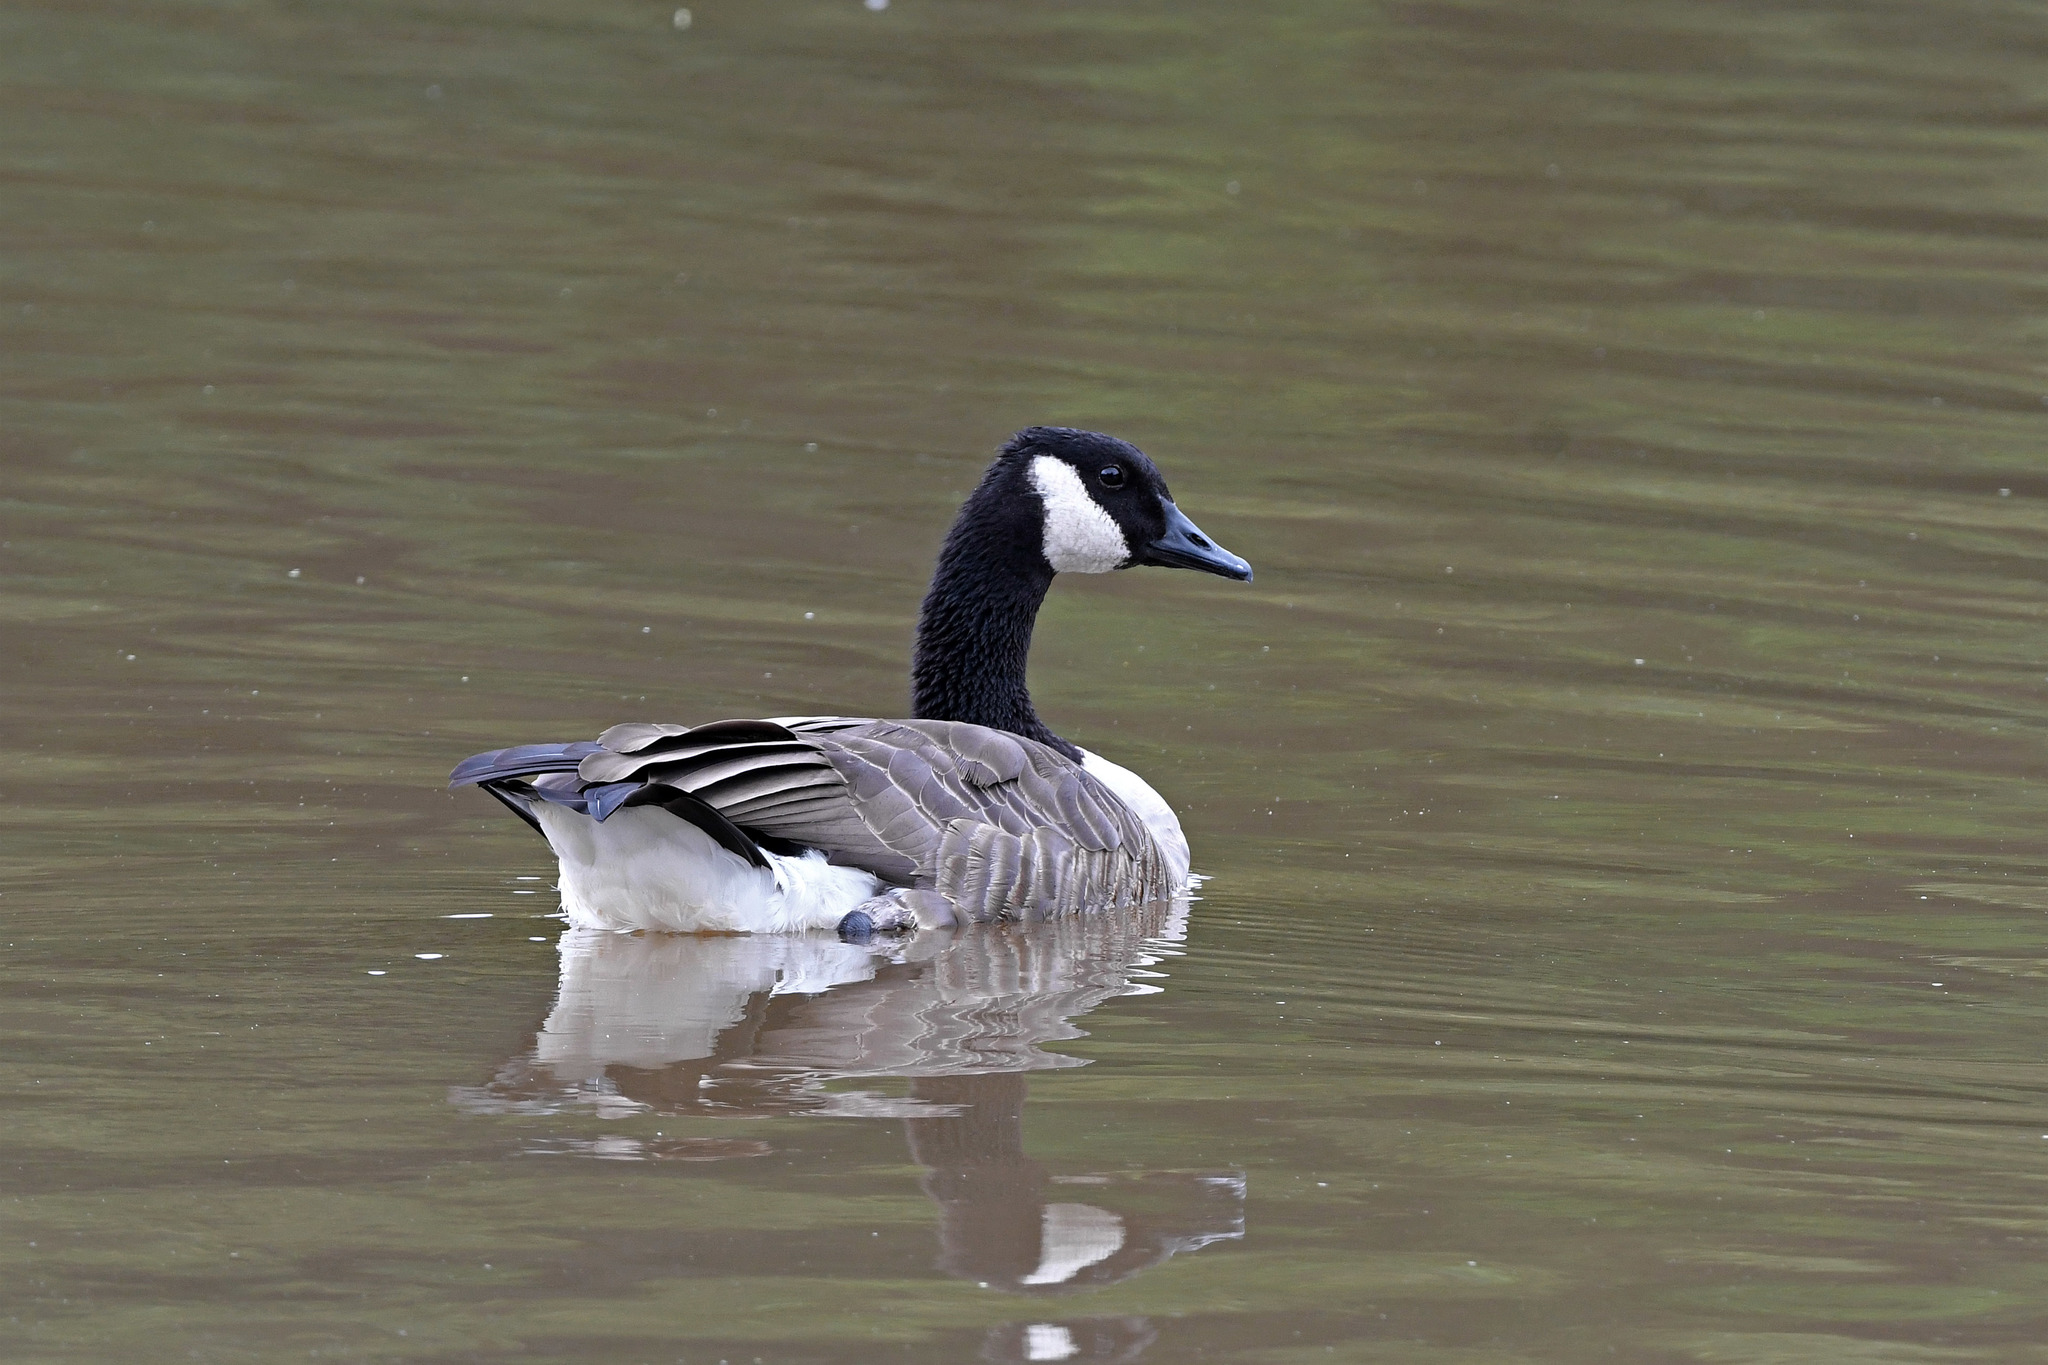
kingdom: Animalia
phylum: Chordata
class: Aves
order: Anseriformes
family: Anatidae
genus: Branta
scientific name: Branta canadensis
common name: Canada goose
